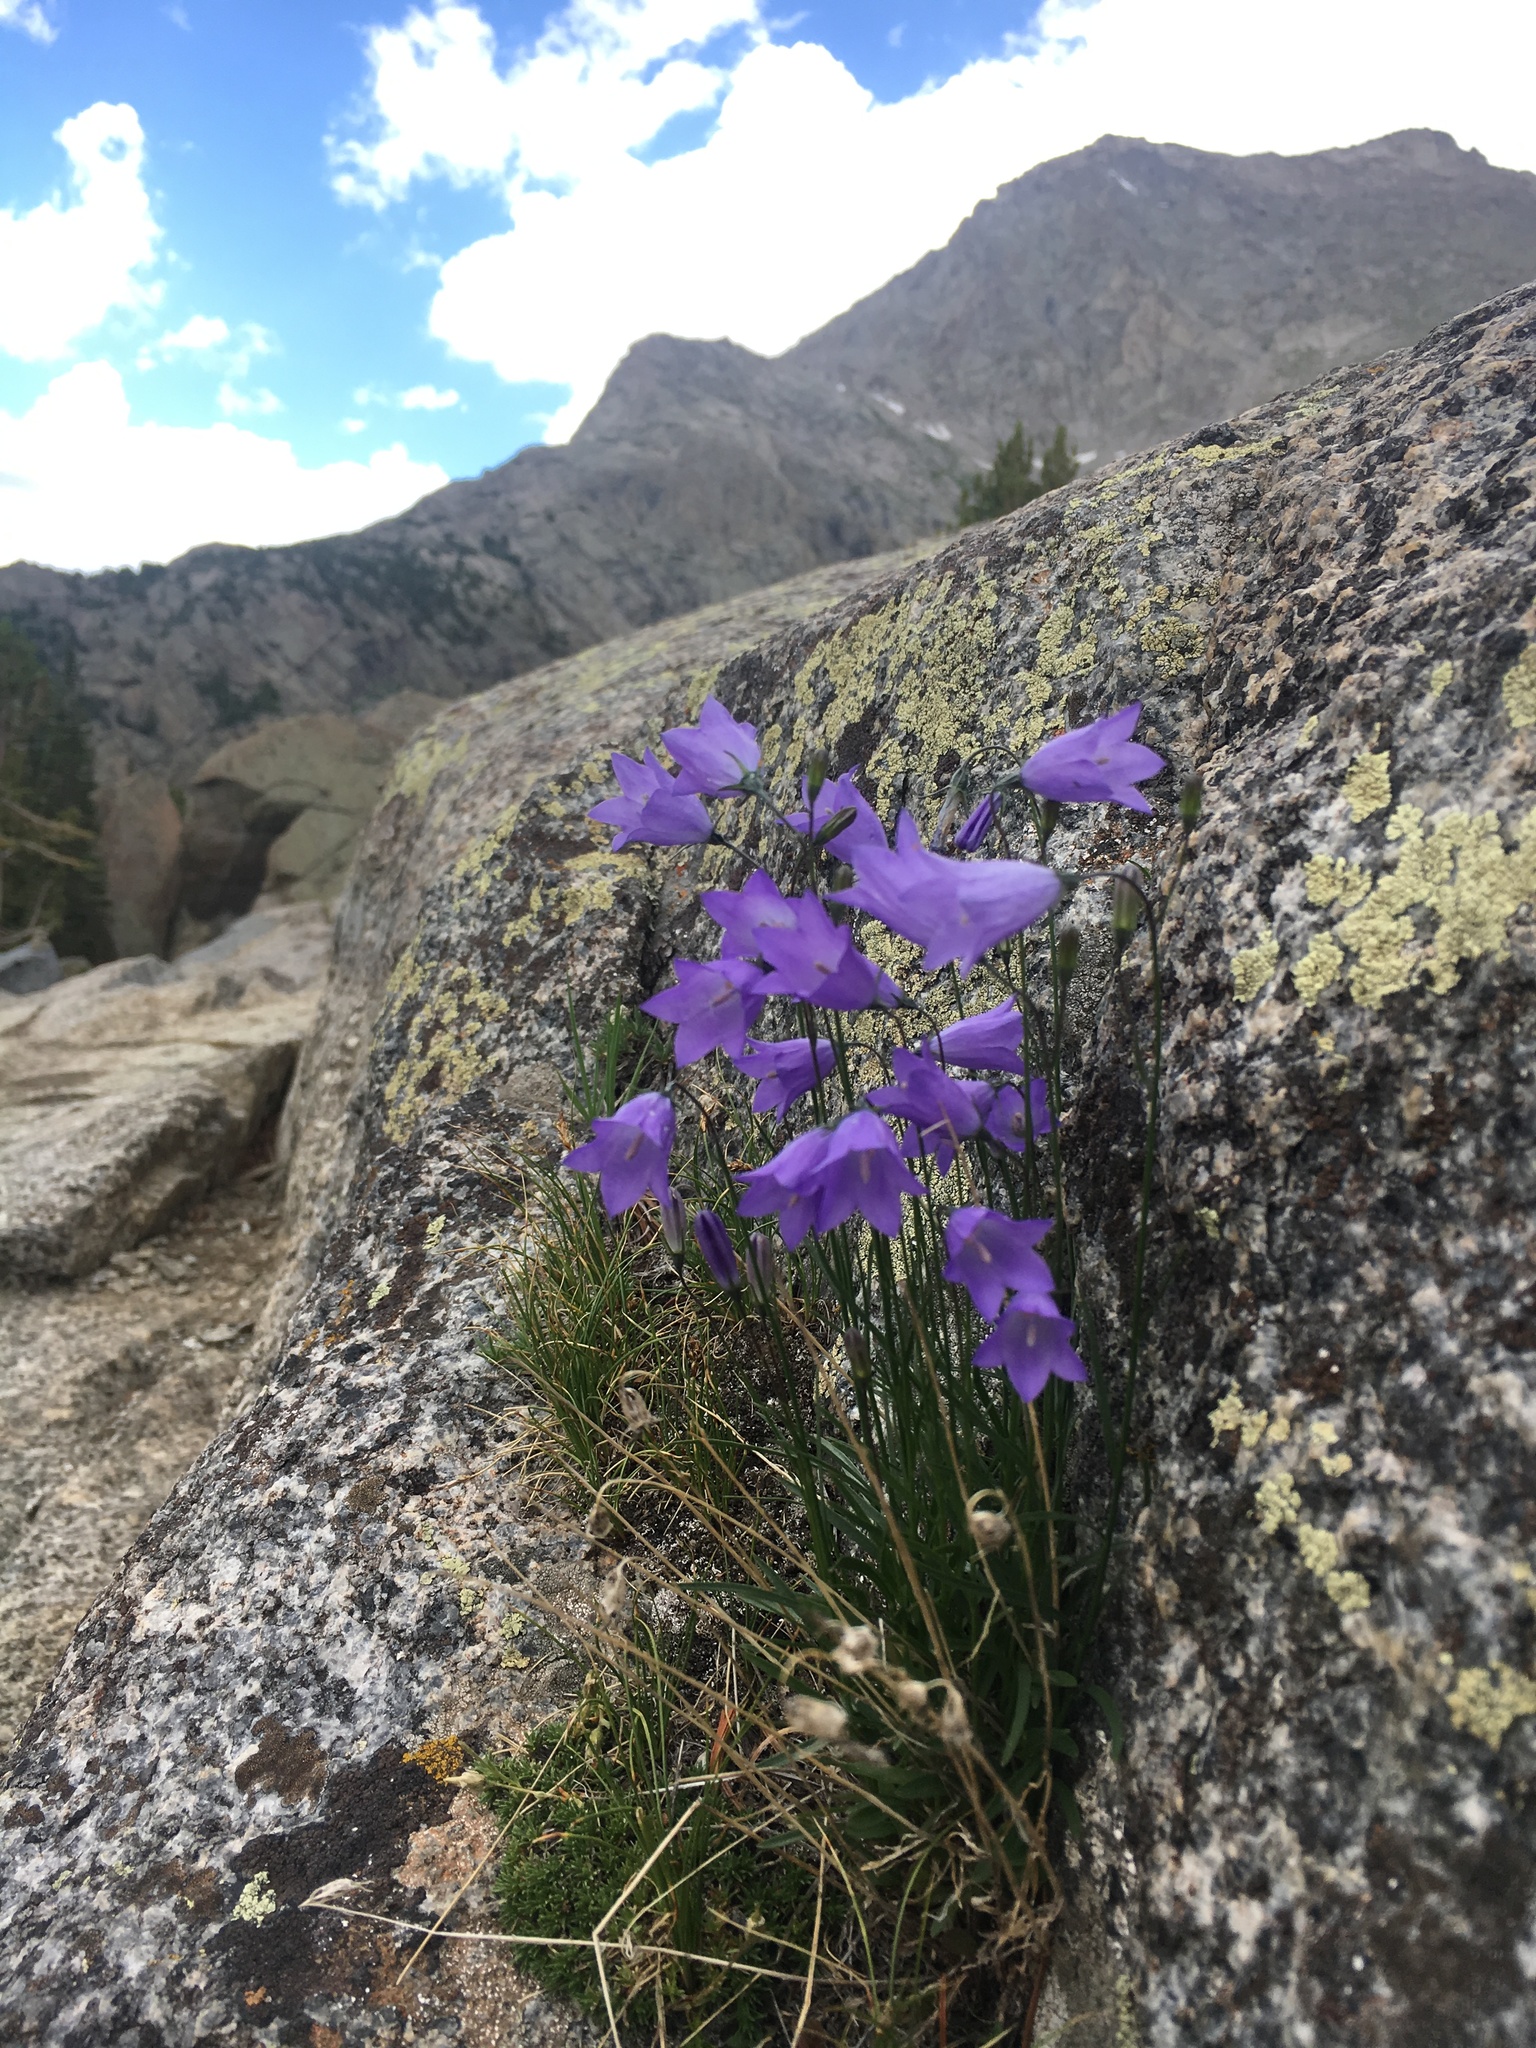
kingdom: Plantae
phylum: Tracheophyta
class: Magnoliopsida
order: Asterales
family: Campanulaceae
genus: Campanula
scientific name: Campanula petiolata
